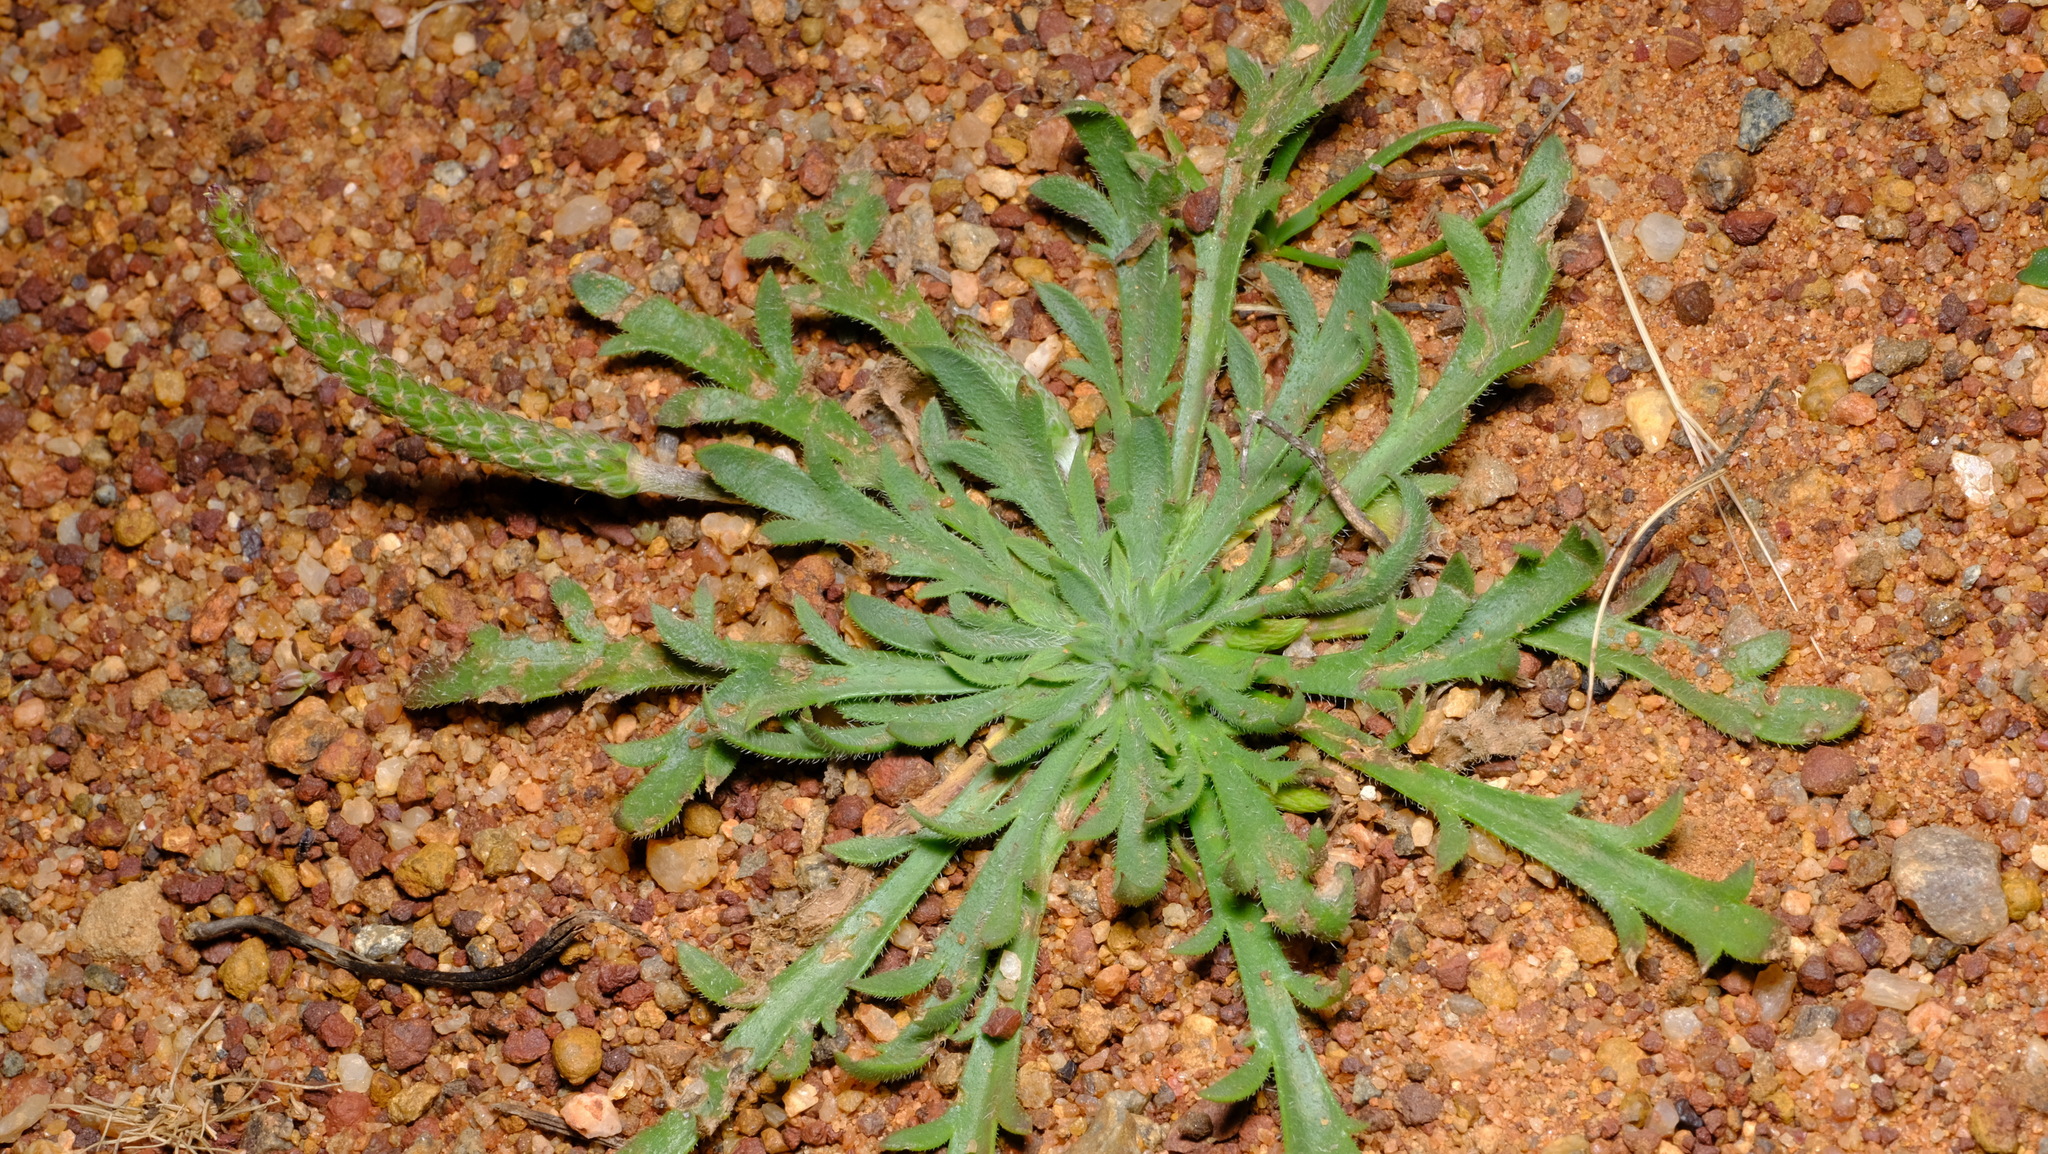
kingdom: Plantae
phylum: Tracheophyta
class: Magnoliopsida
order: Lamiales
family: Plantaginaceae
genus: Plantago
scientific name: Plantago coronopus
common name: Buck's-horn plantain
